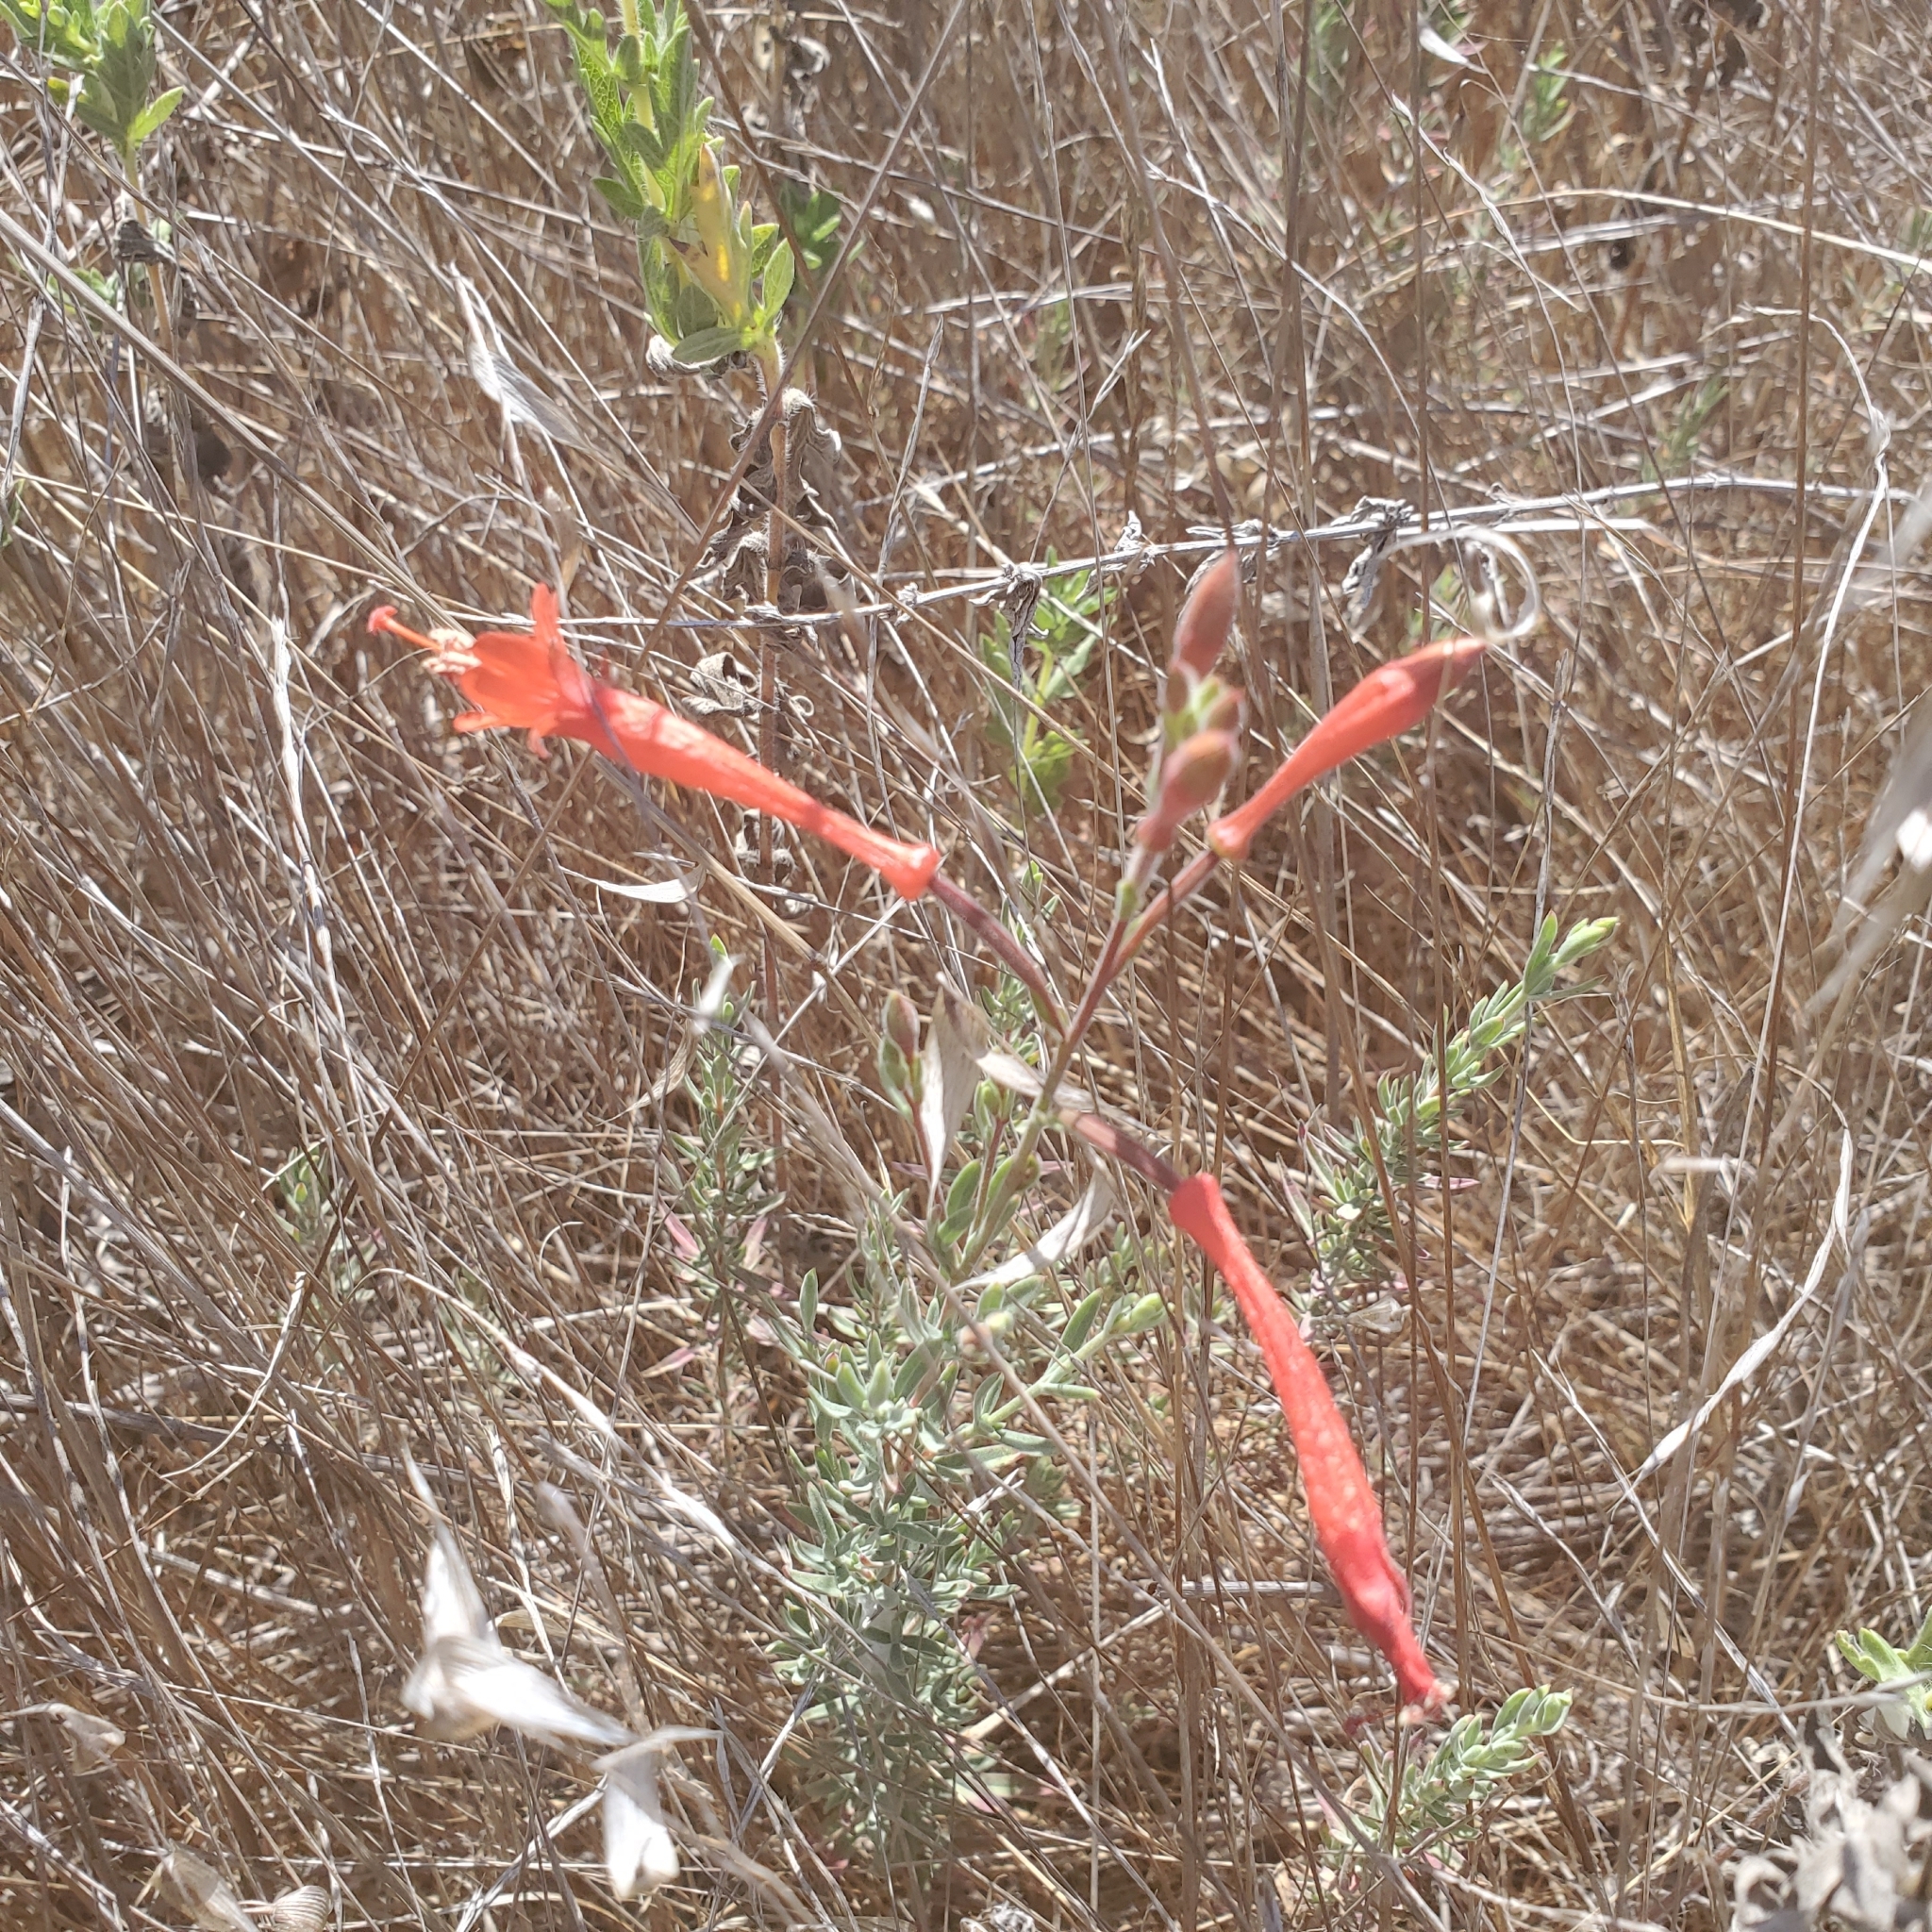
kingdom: Plantae
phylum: Tracheophyta
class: Magnoliopsida
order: Myrtales
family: Onagraceae
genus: Epilobium
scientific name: Epilobium canum
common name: California-fuchsia
